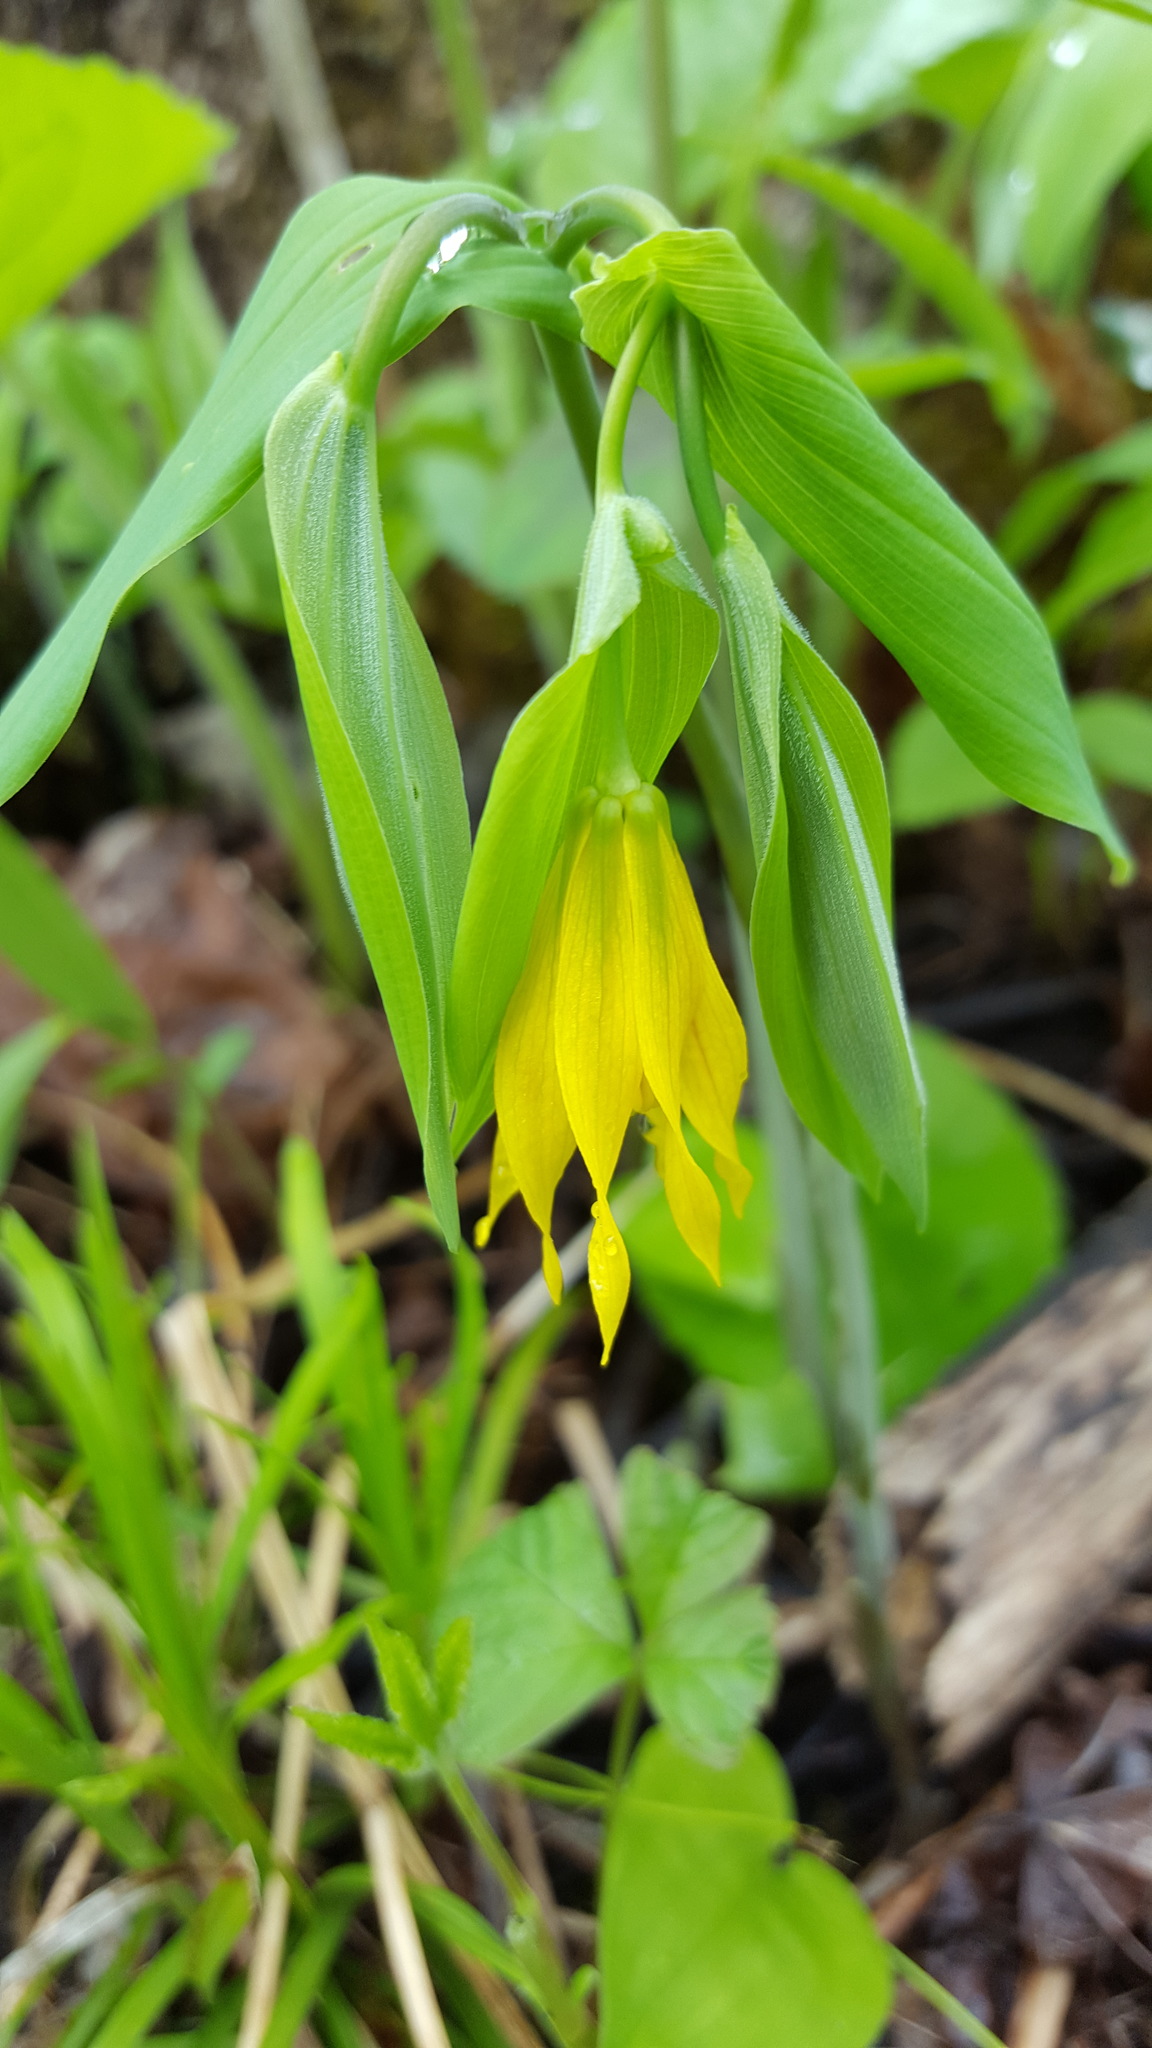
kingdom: Plantae
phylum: Tracheophyta
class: Liliopsida
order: Liliales
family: Colchicaceae
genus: Uvularia
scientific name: Uvularia grandiflora
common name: Bellwort
